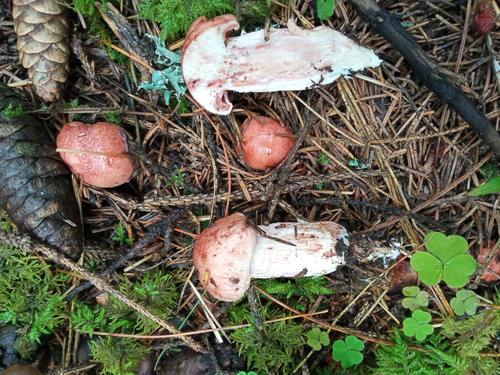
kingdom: Fungi
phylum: Basidiomycota
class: Agaricomycetes
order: Agaricales
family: Hygrophoraceae
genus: Hygrophorus
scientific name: Hygrophorus erubescens
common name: Blotched woodwax
